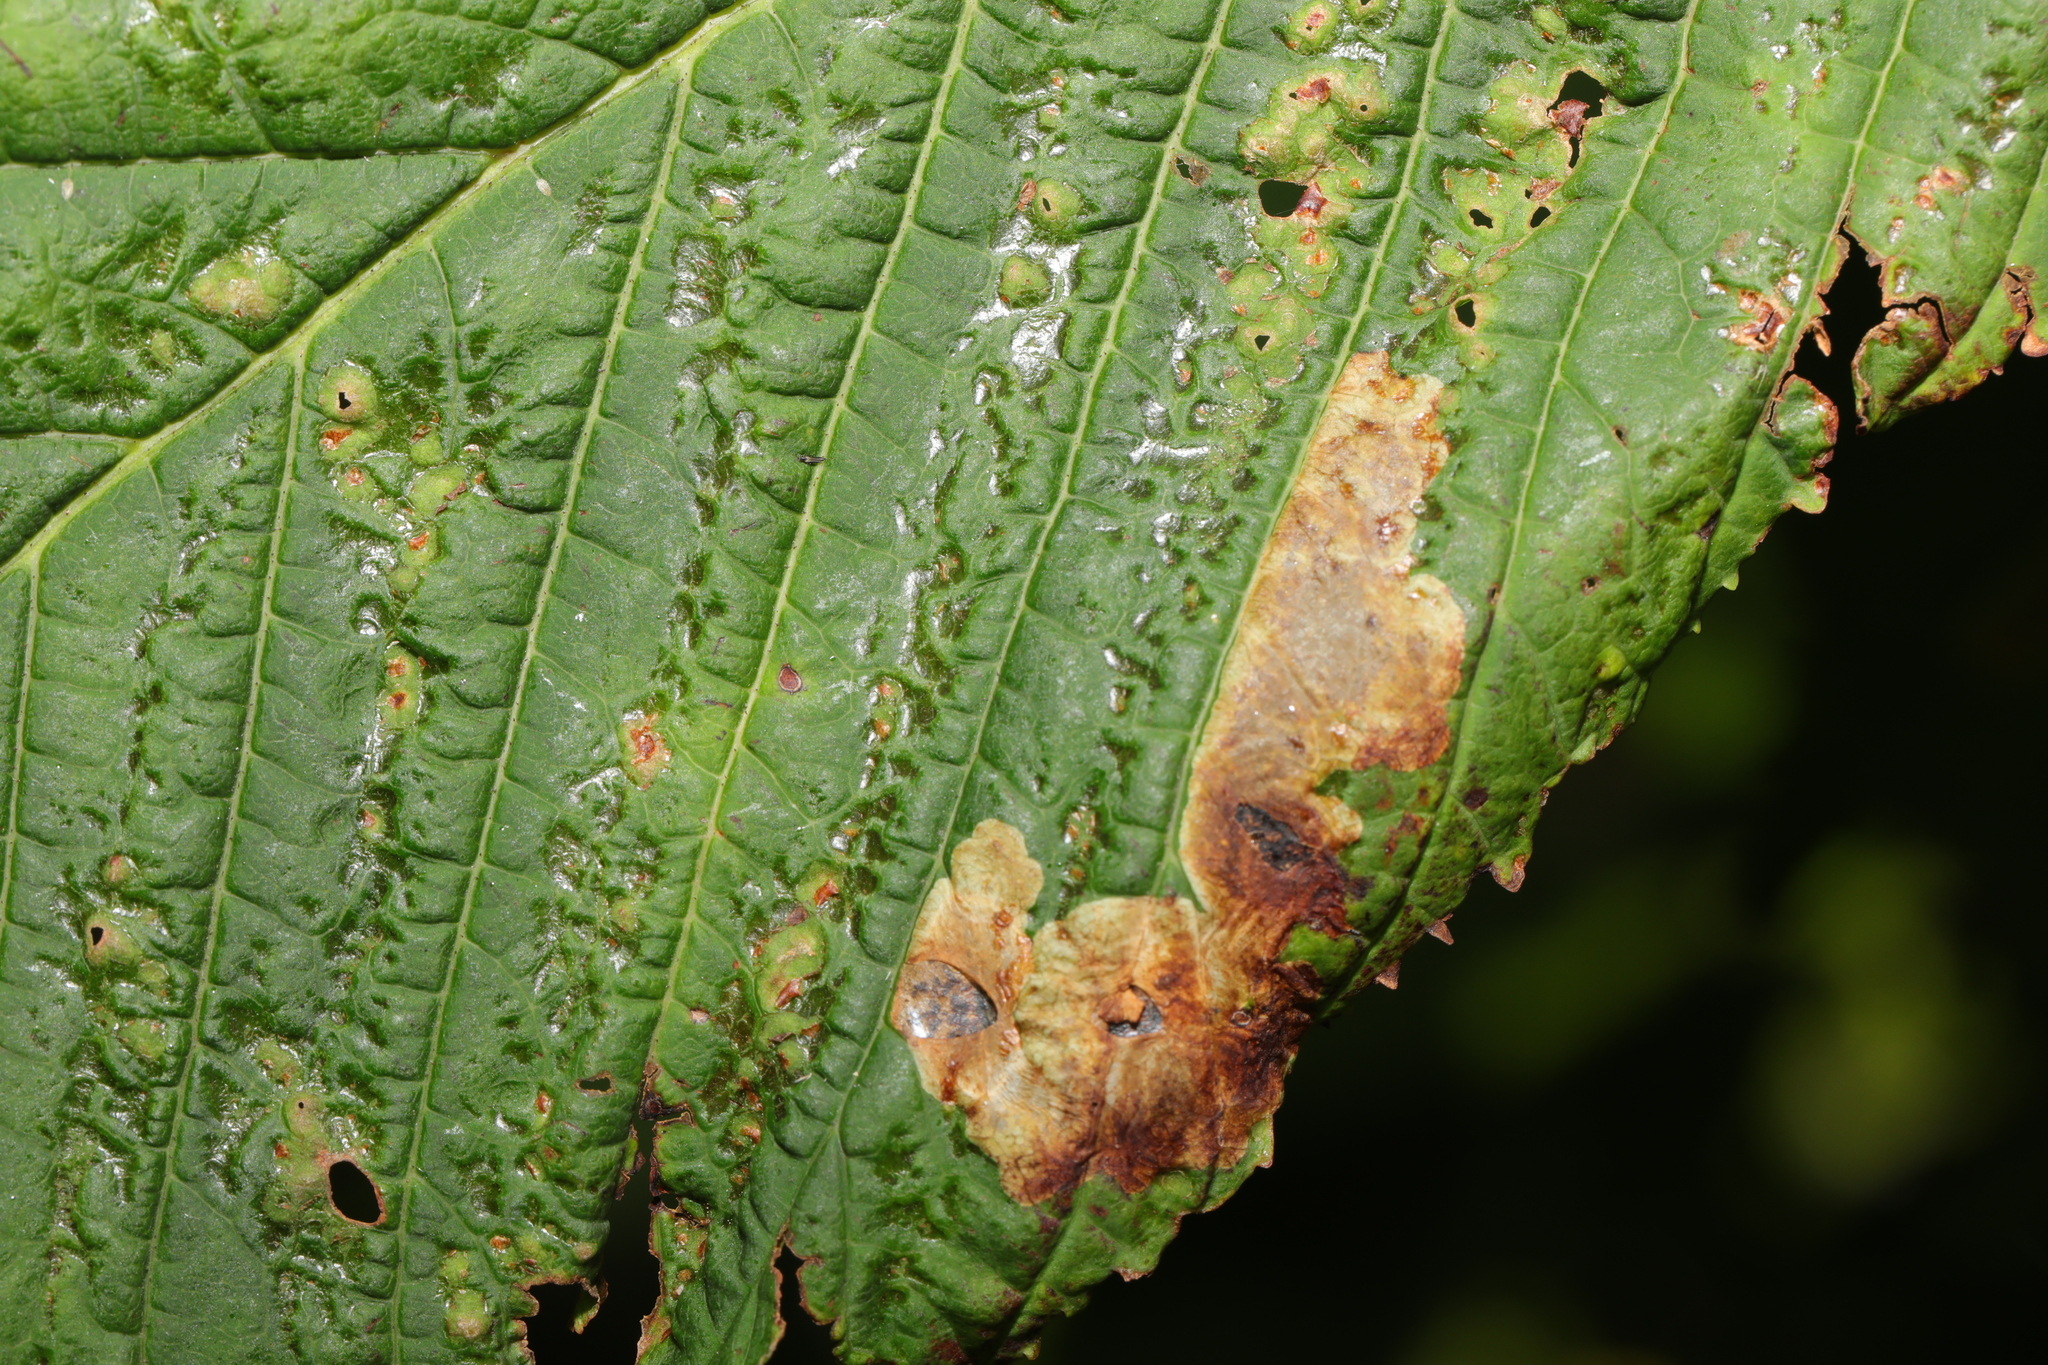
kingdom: Animalia
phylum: Arthropoda
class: Insecta
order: Lepidoptera
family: Gracillariidae
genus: Cameraria
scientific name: Cameraria ohridella
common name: Horse-chestnut leaf-miner
